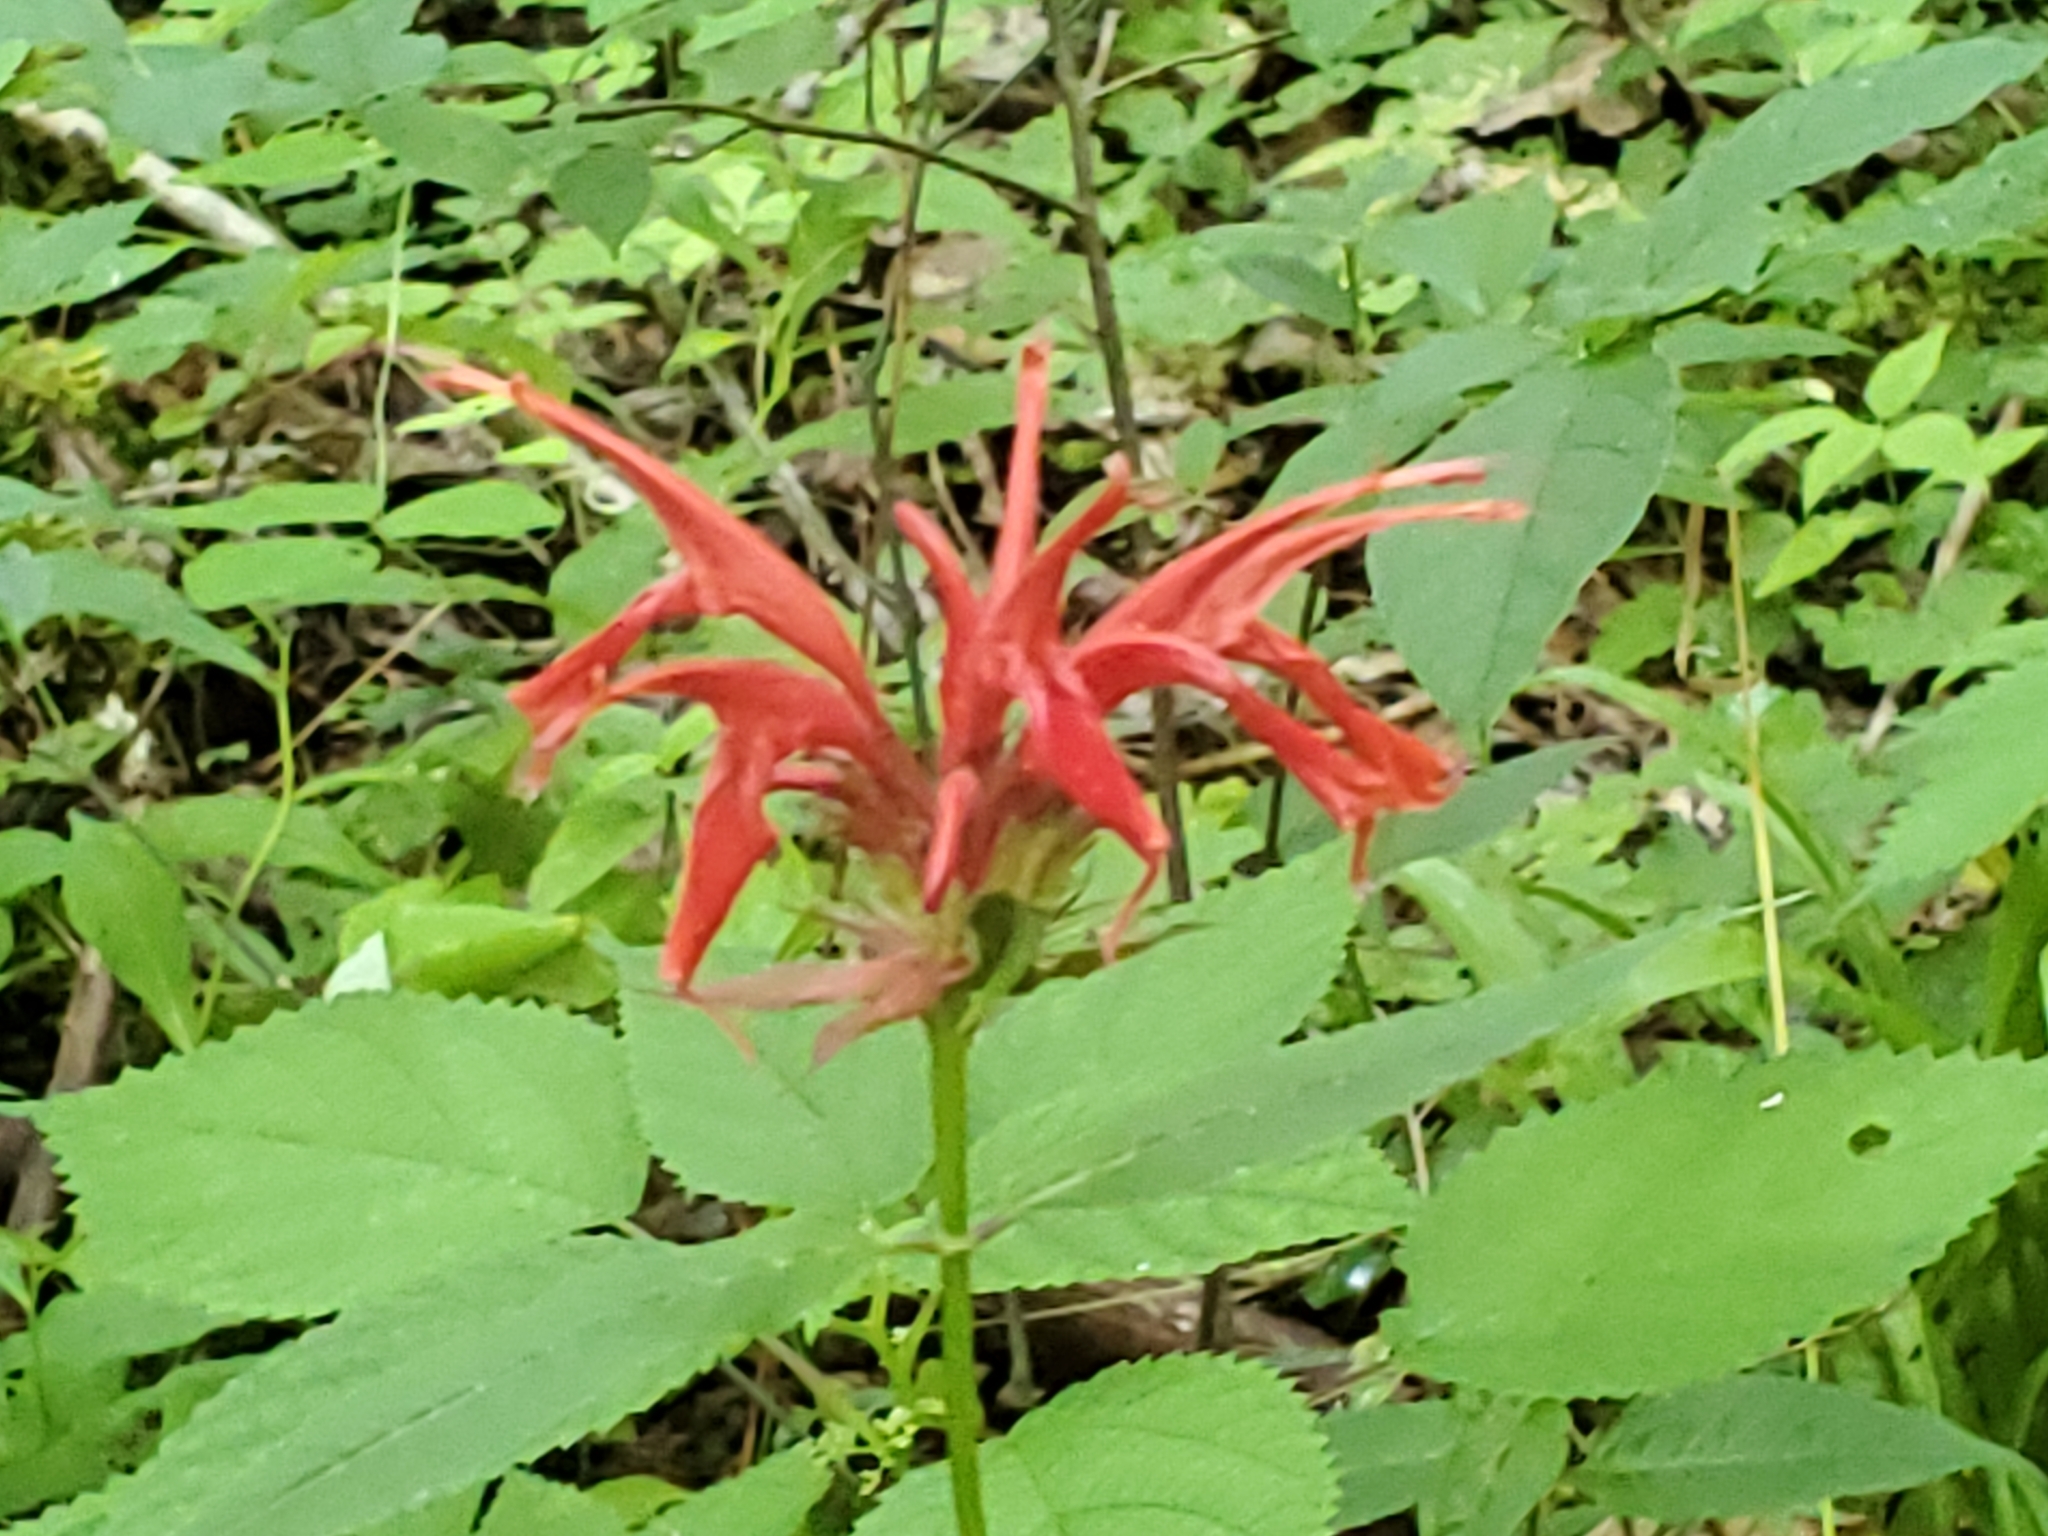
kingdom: Plantae
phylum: Tracheophyta
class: Magnoliopsida
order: Lamiales
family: Lamiaceae
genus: Monarda
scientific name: Monarda didyma
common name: Beebalm
